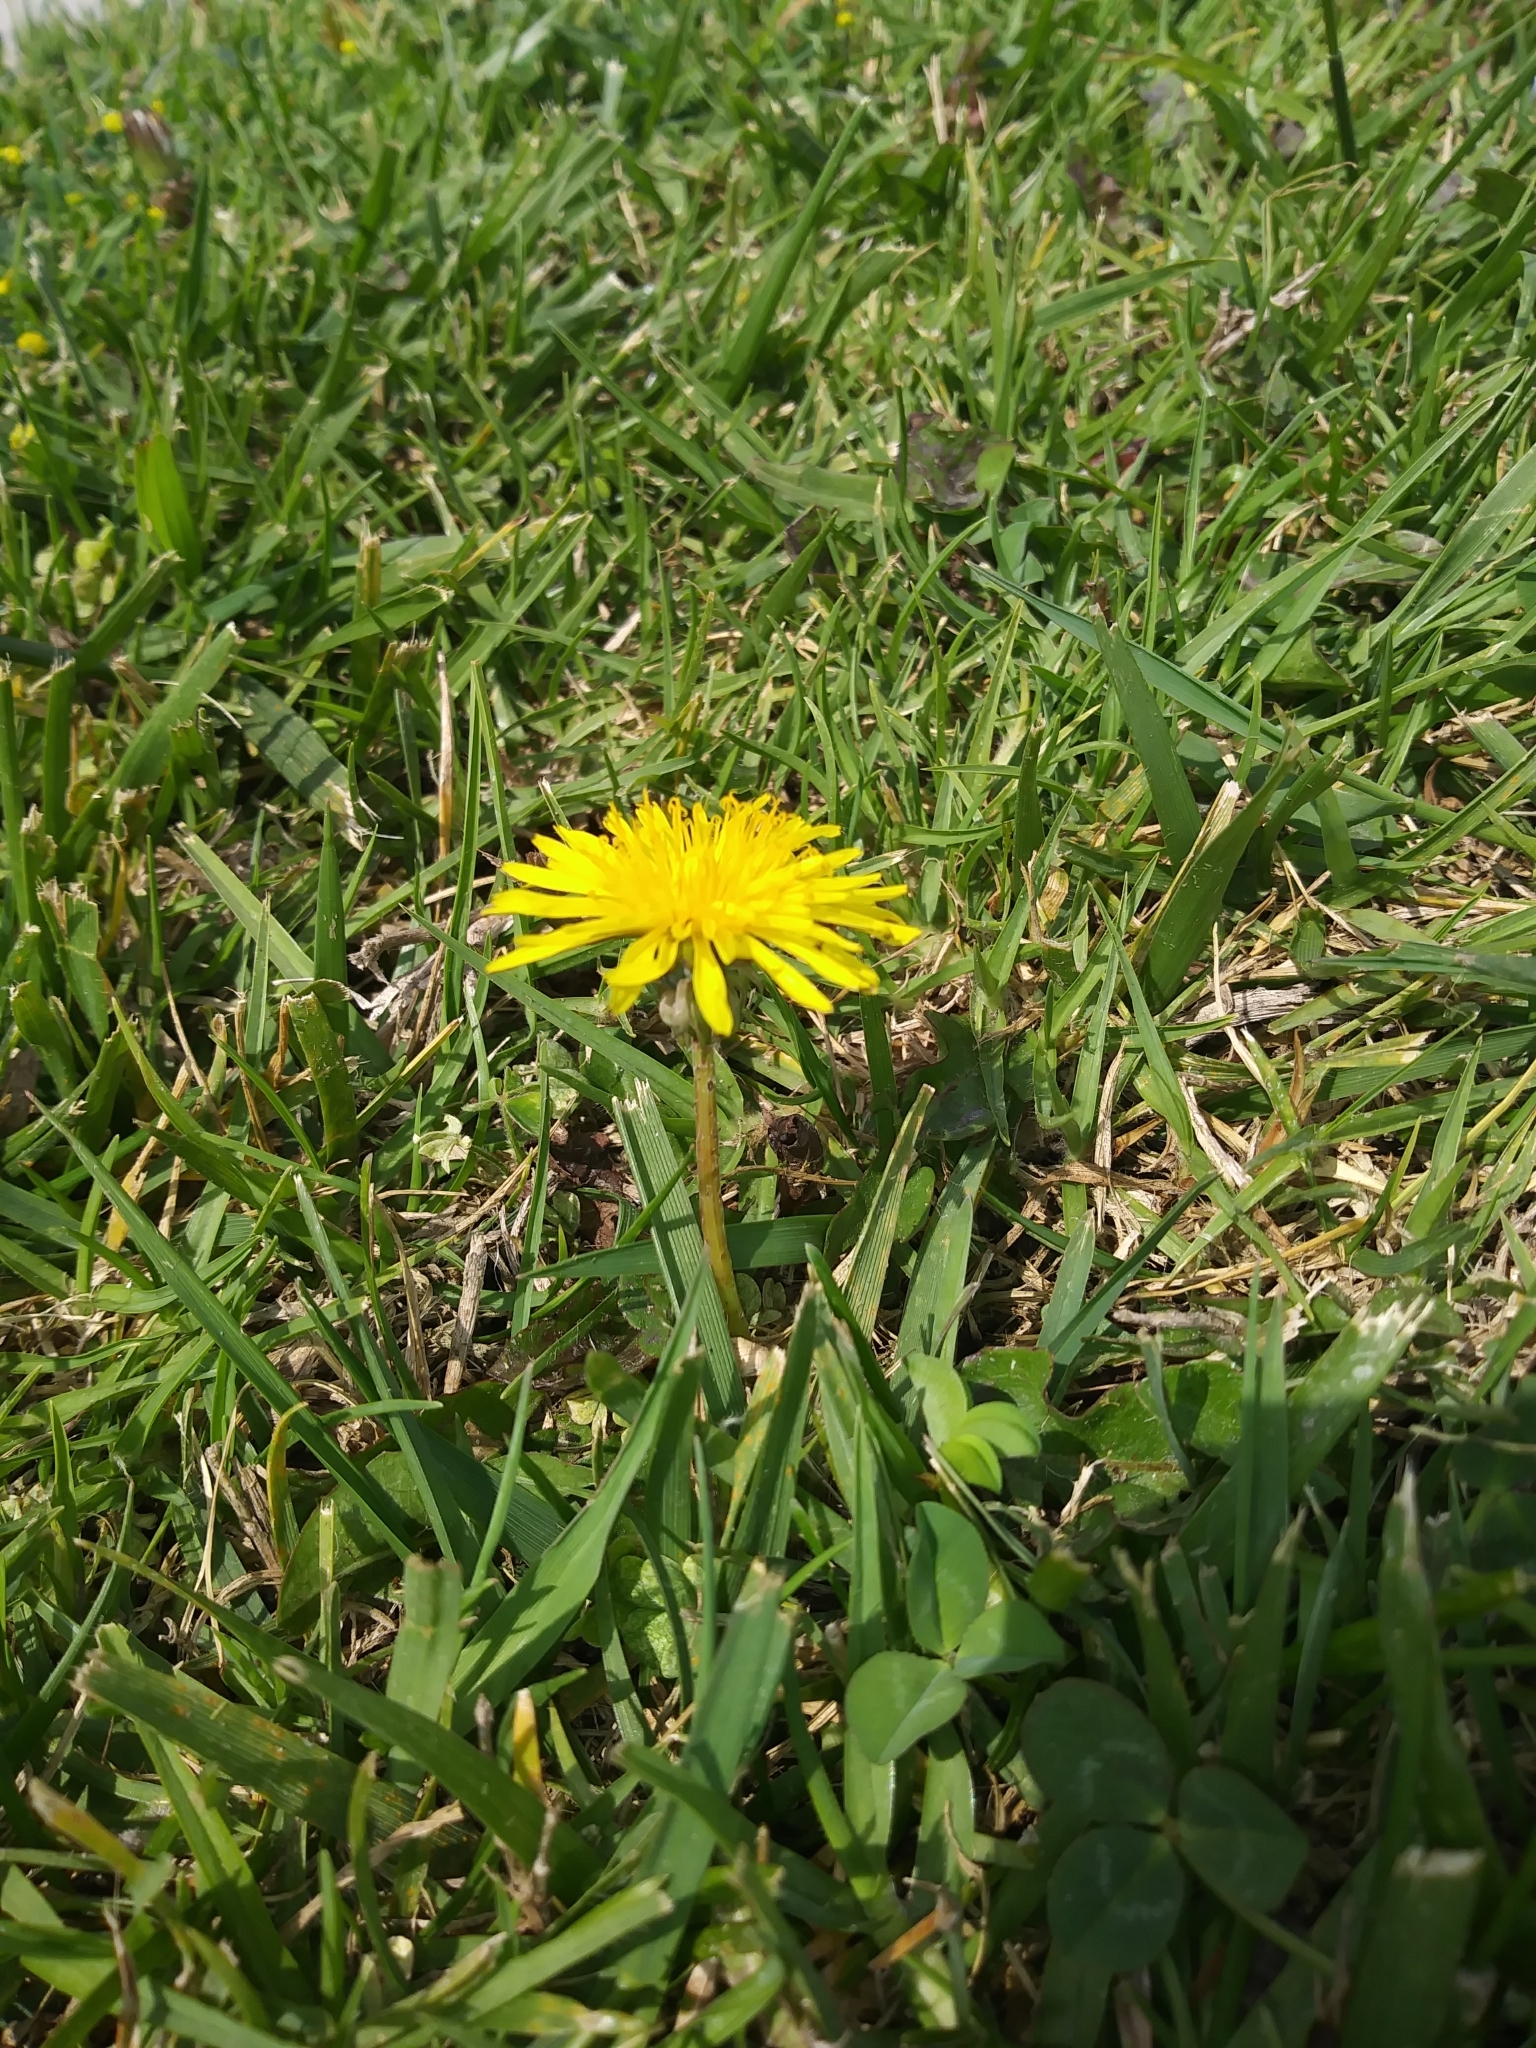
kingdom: Plantae
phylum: Tracheophyta
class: Magnoliopsida
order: Asterales
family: Asteraceae
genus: Taraxacum
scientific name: Taraxacum officinale
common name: Common dandelion
